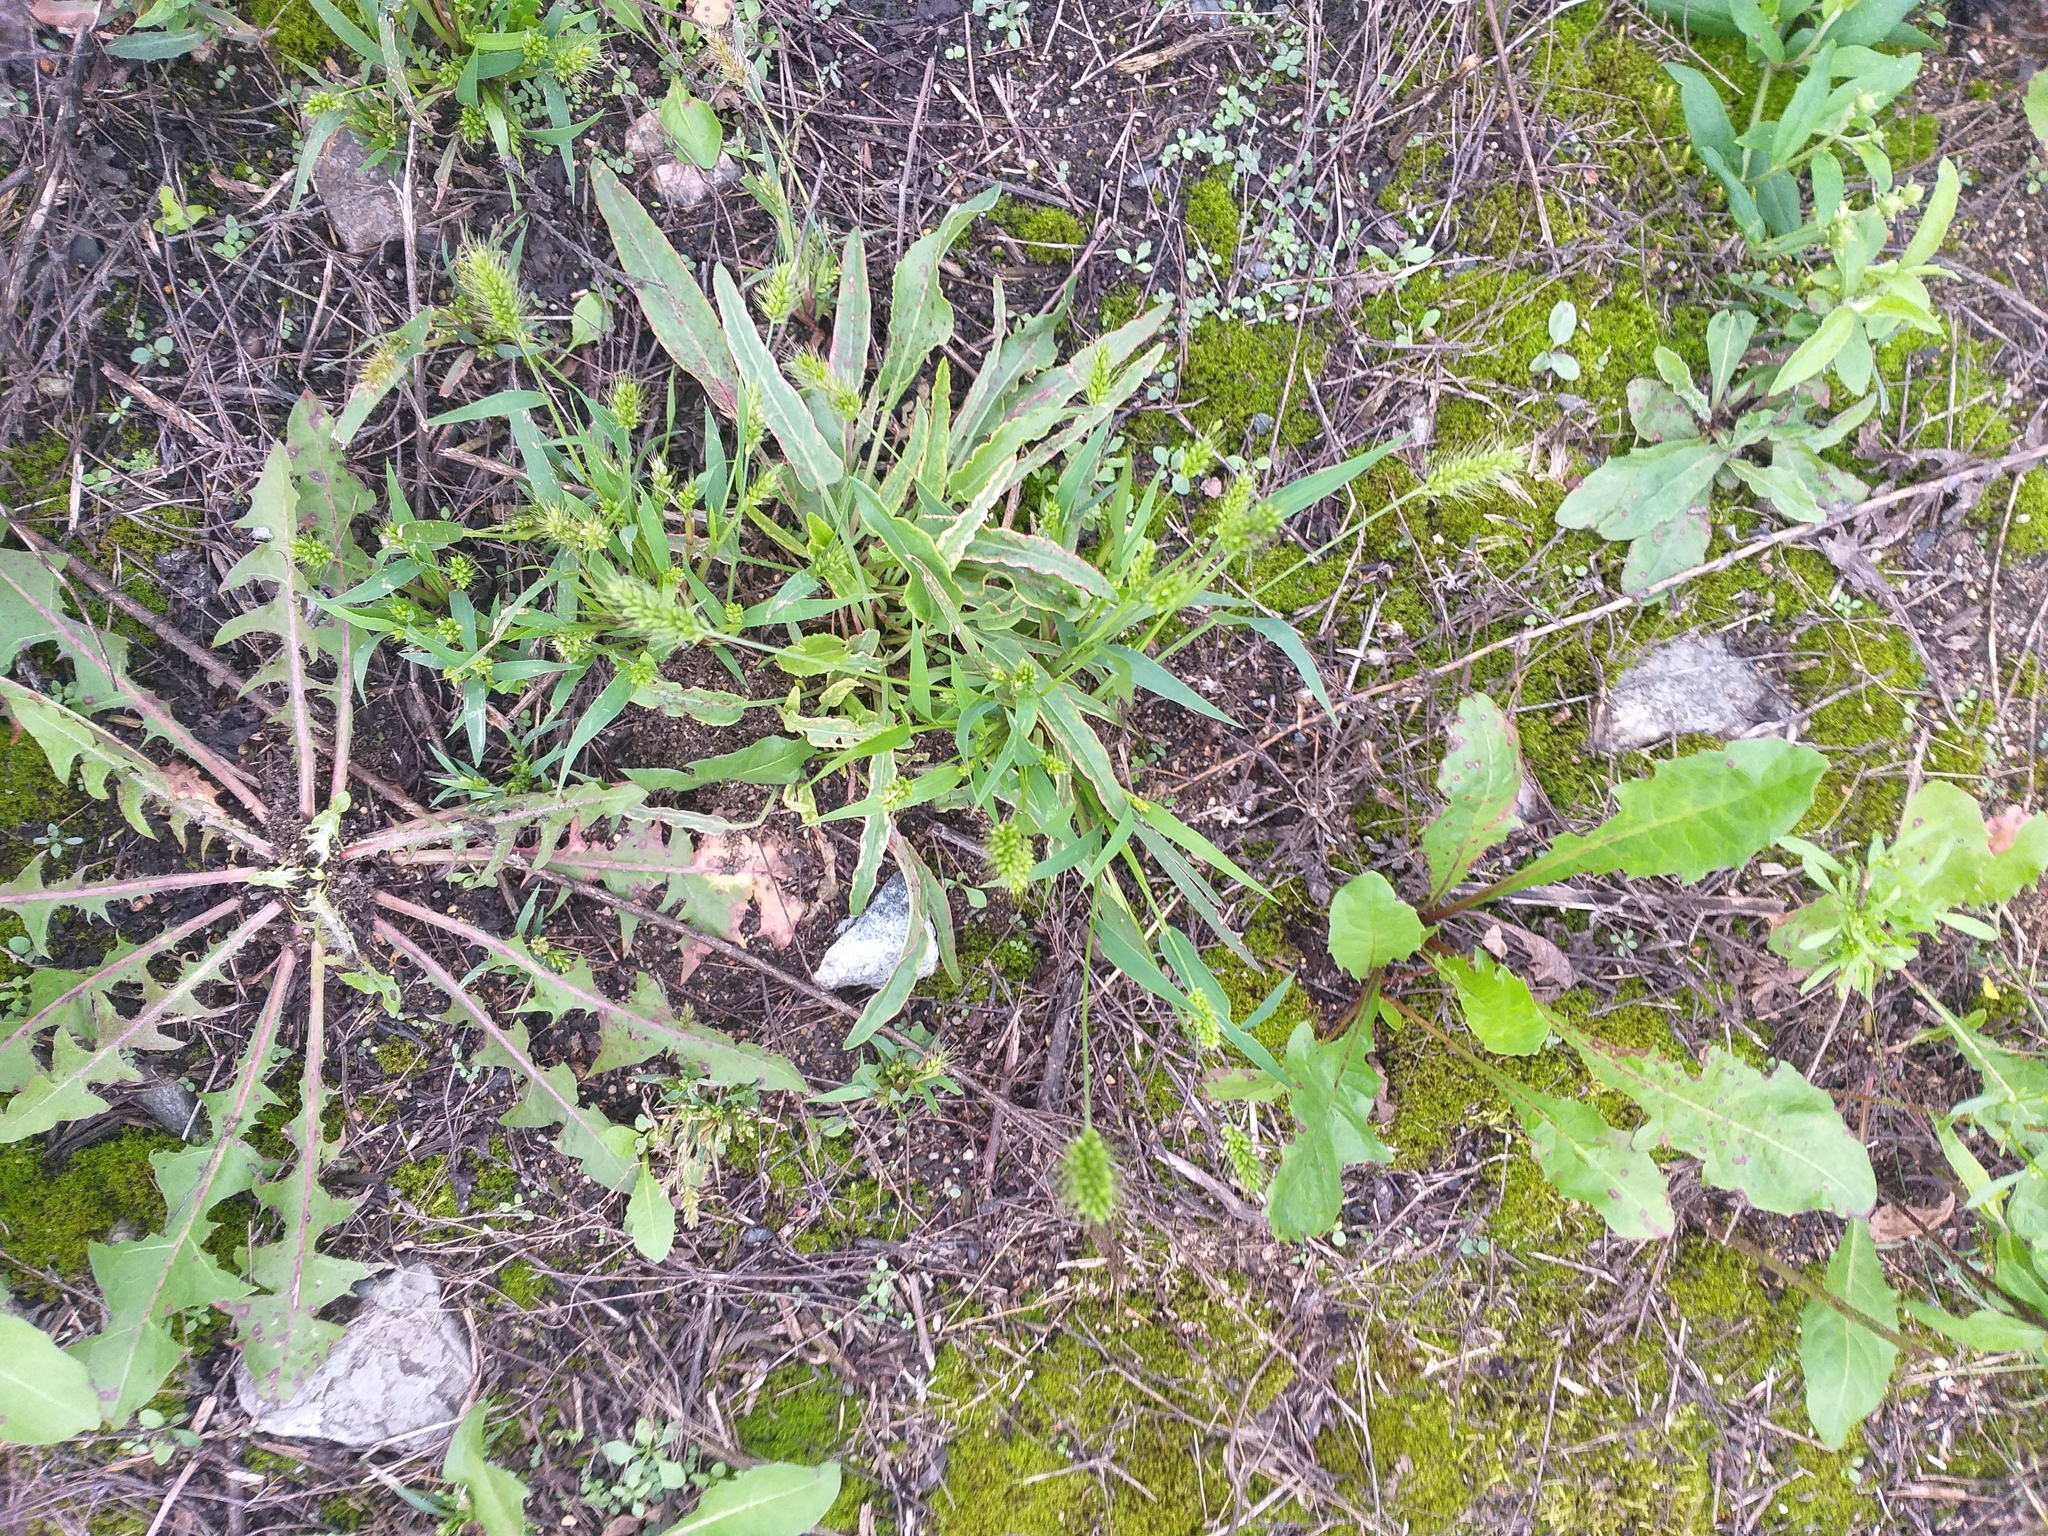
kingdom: Plantae
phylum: Tracheophyta
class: Liliopsida
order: Poales
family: Poaceae
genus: Setaria
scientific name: Setaria viridis
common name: Green bristlegrass
